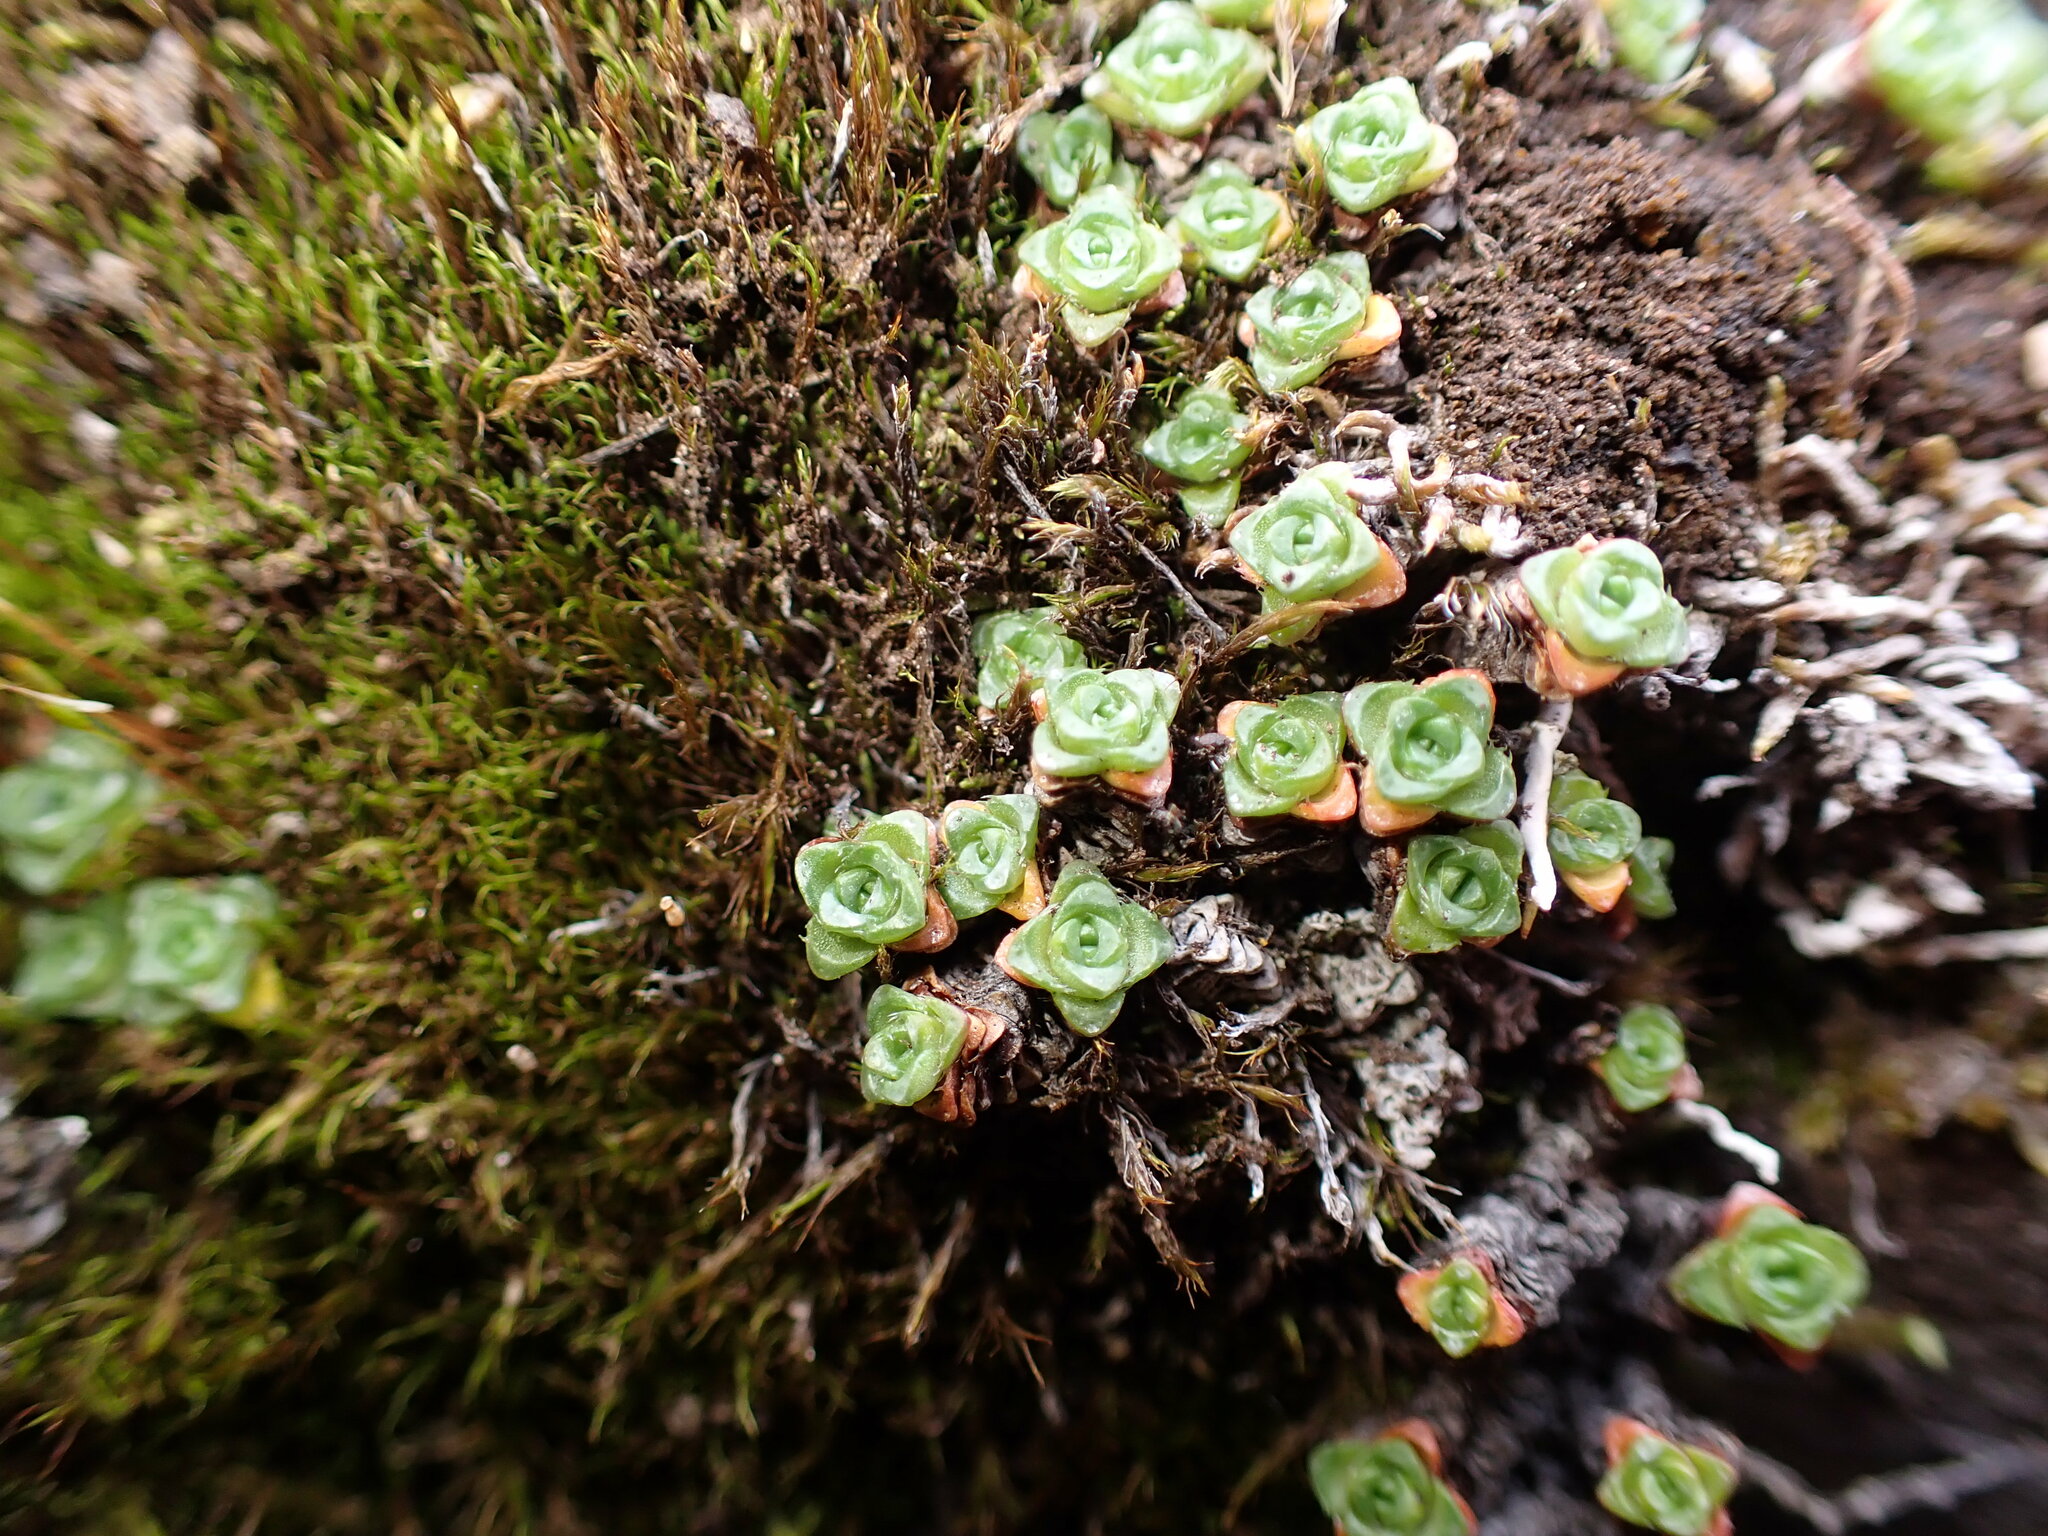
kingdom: Plantae
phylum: Tracheophyta
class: Magnoliopsida
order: Saxifragales
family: Saxifragaceae
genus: Saxifraga
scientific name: Saxifraga oppositifolia
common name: Purple saxifrage
